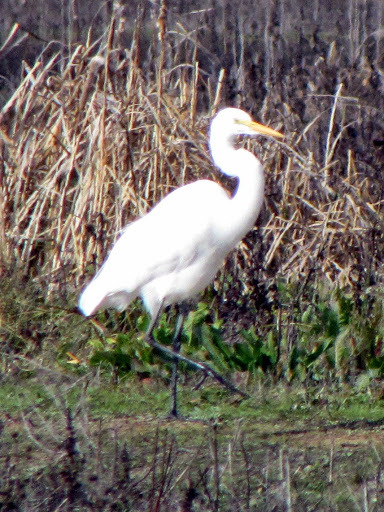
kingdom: Animalia
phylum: Chordata
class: Aves
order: Pelecaniformes
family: Ardeidae
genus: Ardea
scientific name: Ardea alba
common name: Great egret
